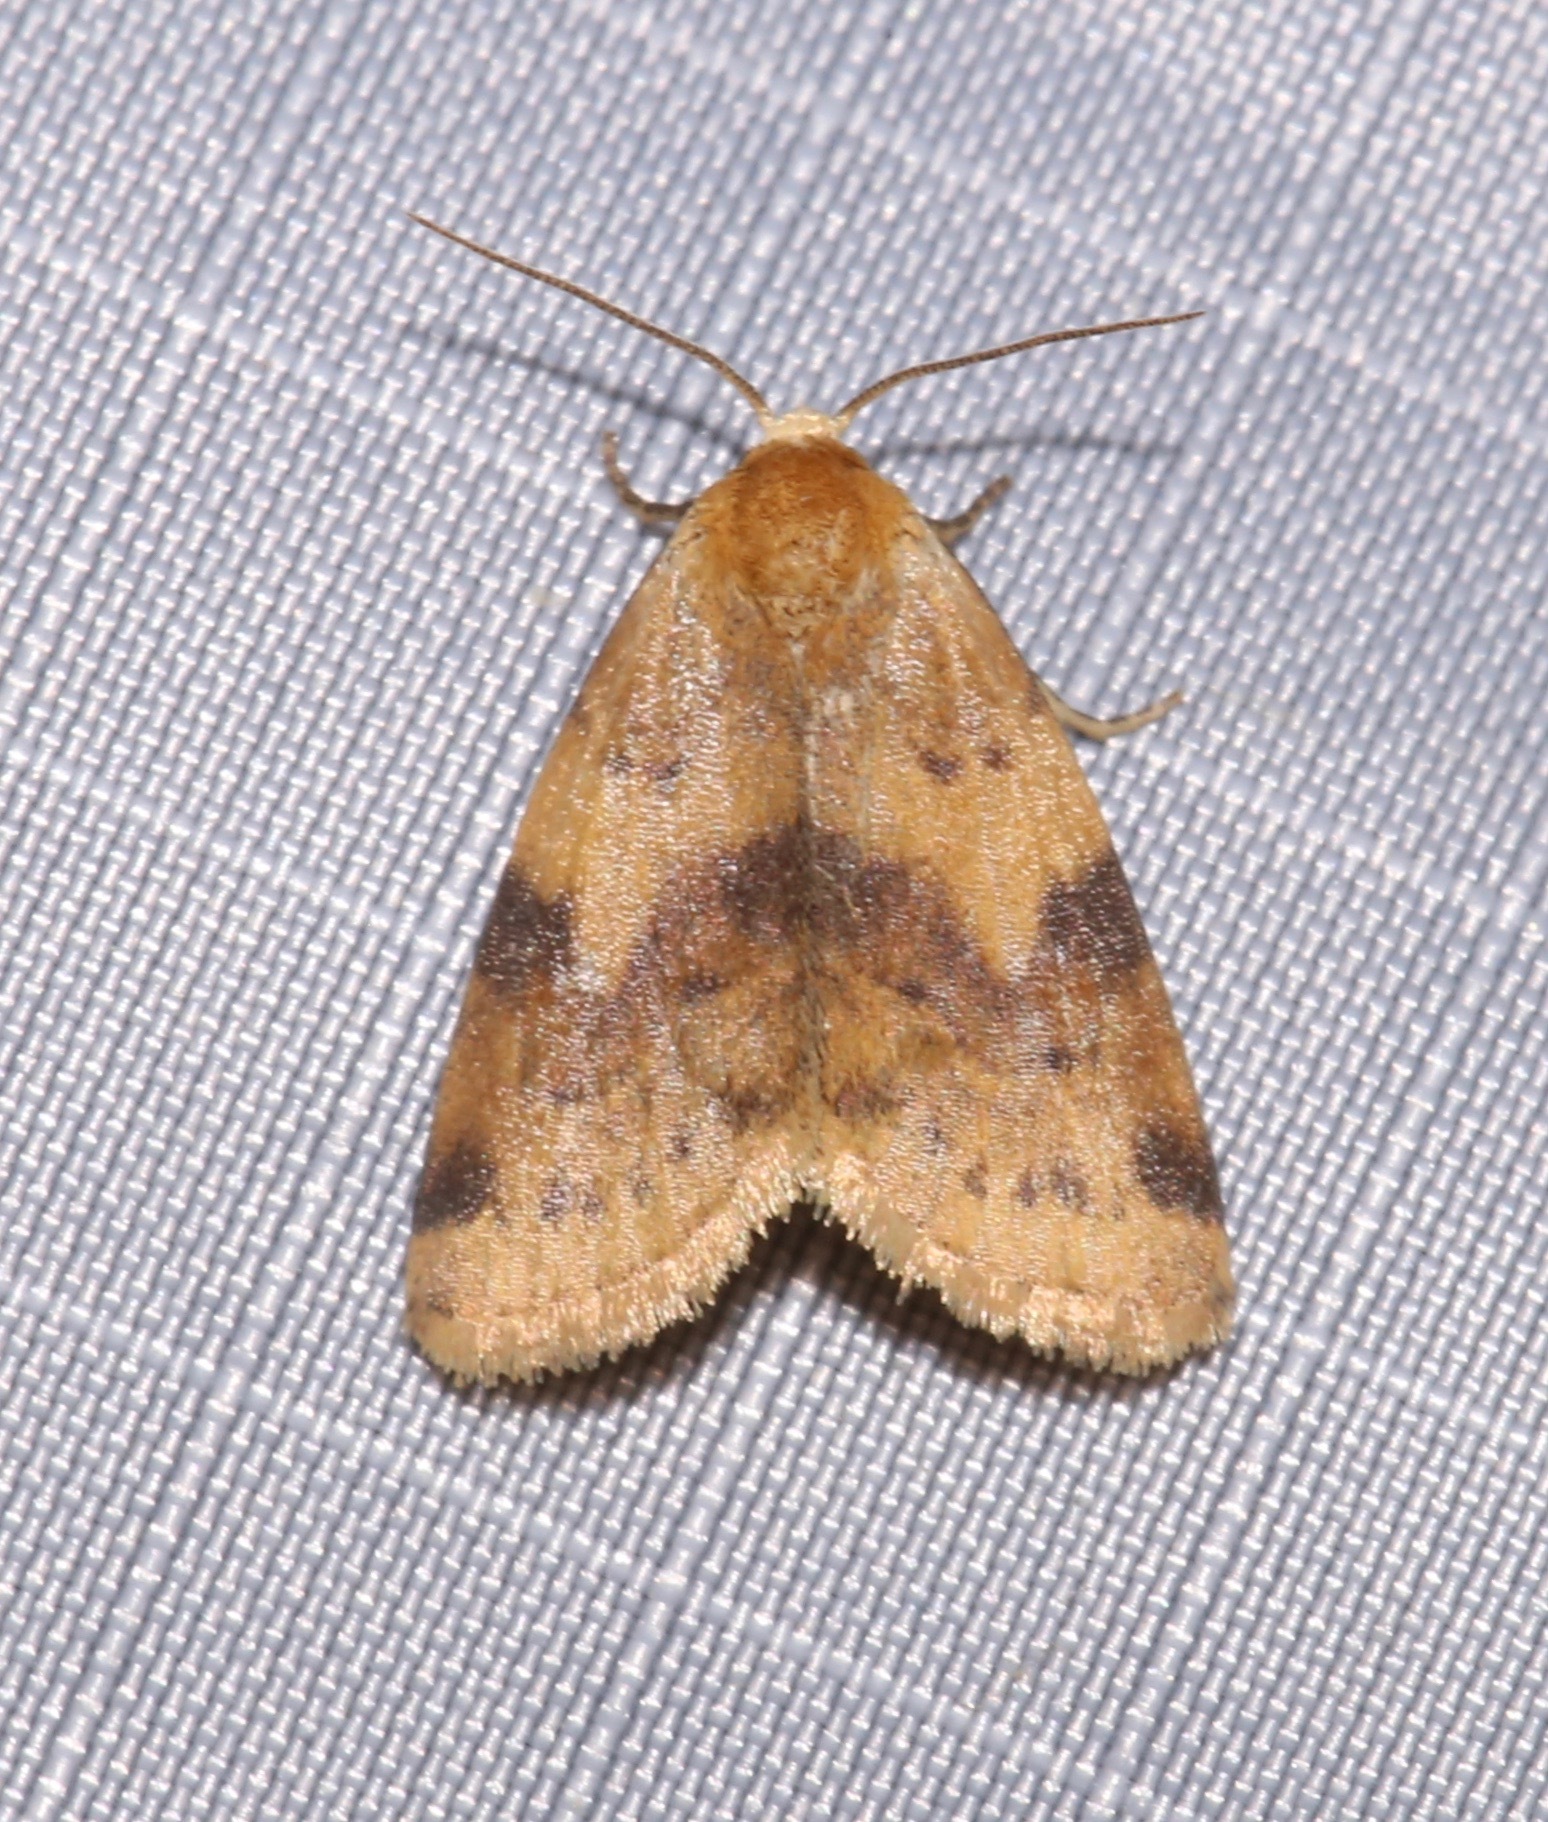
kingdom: Animalia
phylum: Arthropoda
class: Insecta
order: Lepidoptera
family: Noctuidae
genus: Azenia
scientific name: Azenia procida
